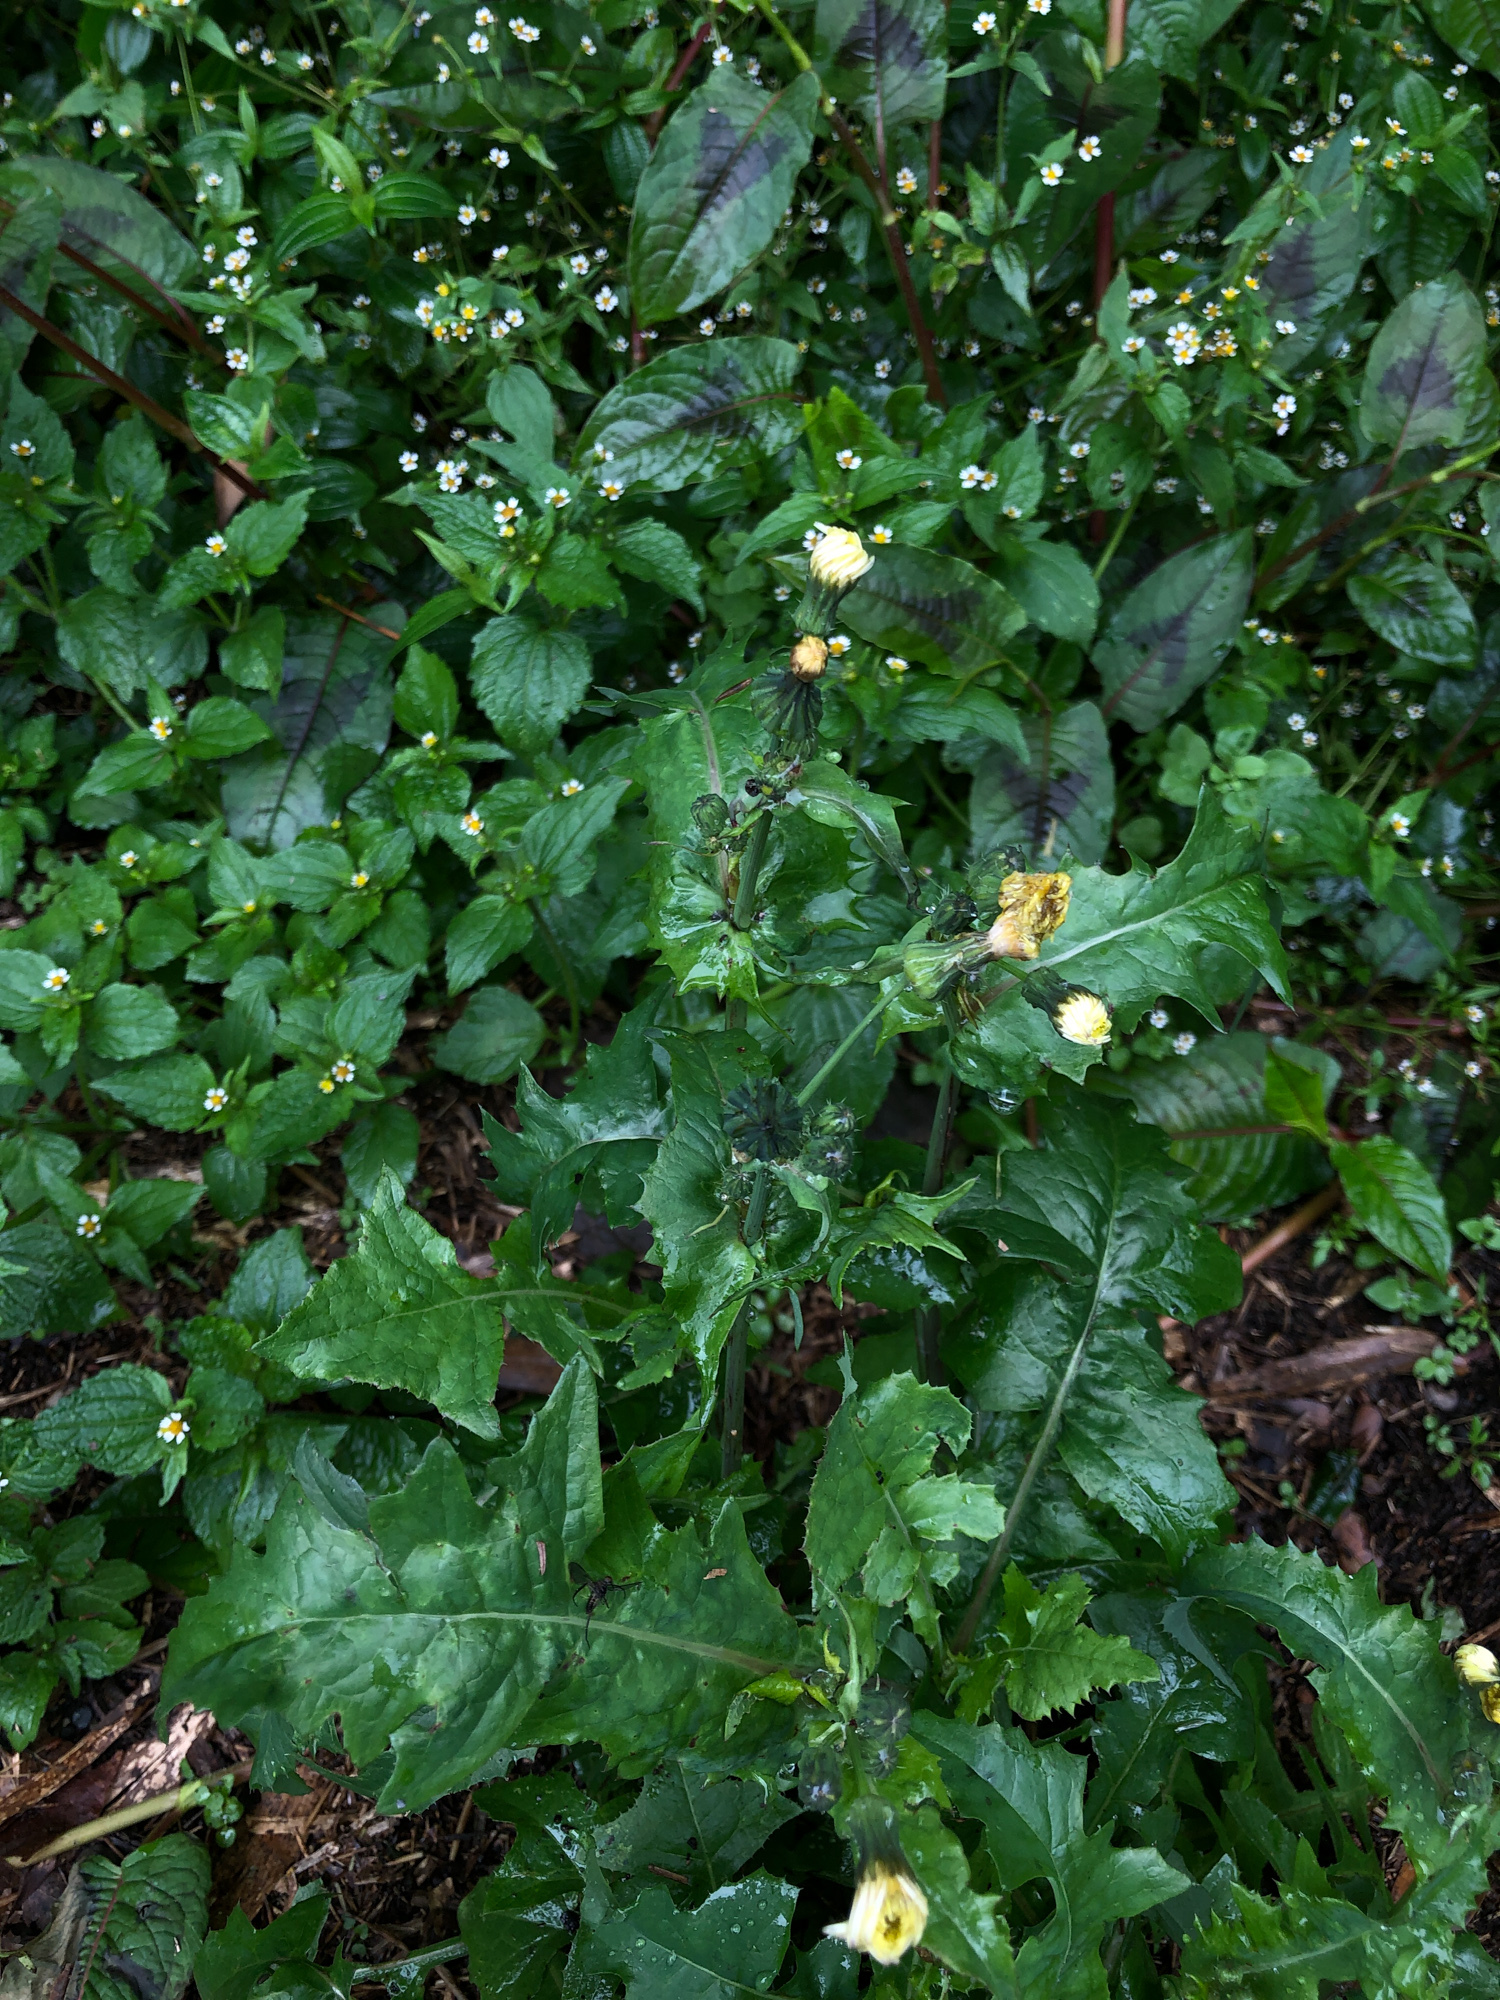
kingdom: Plantae
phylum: Tracheophyta
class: Magnoliopsida
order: Asterales
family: Asteraceae
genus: Sonchus
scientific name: Sonchus oleraceus
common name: Common sowthistle
